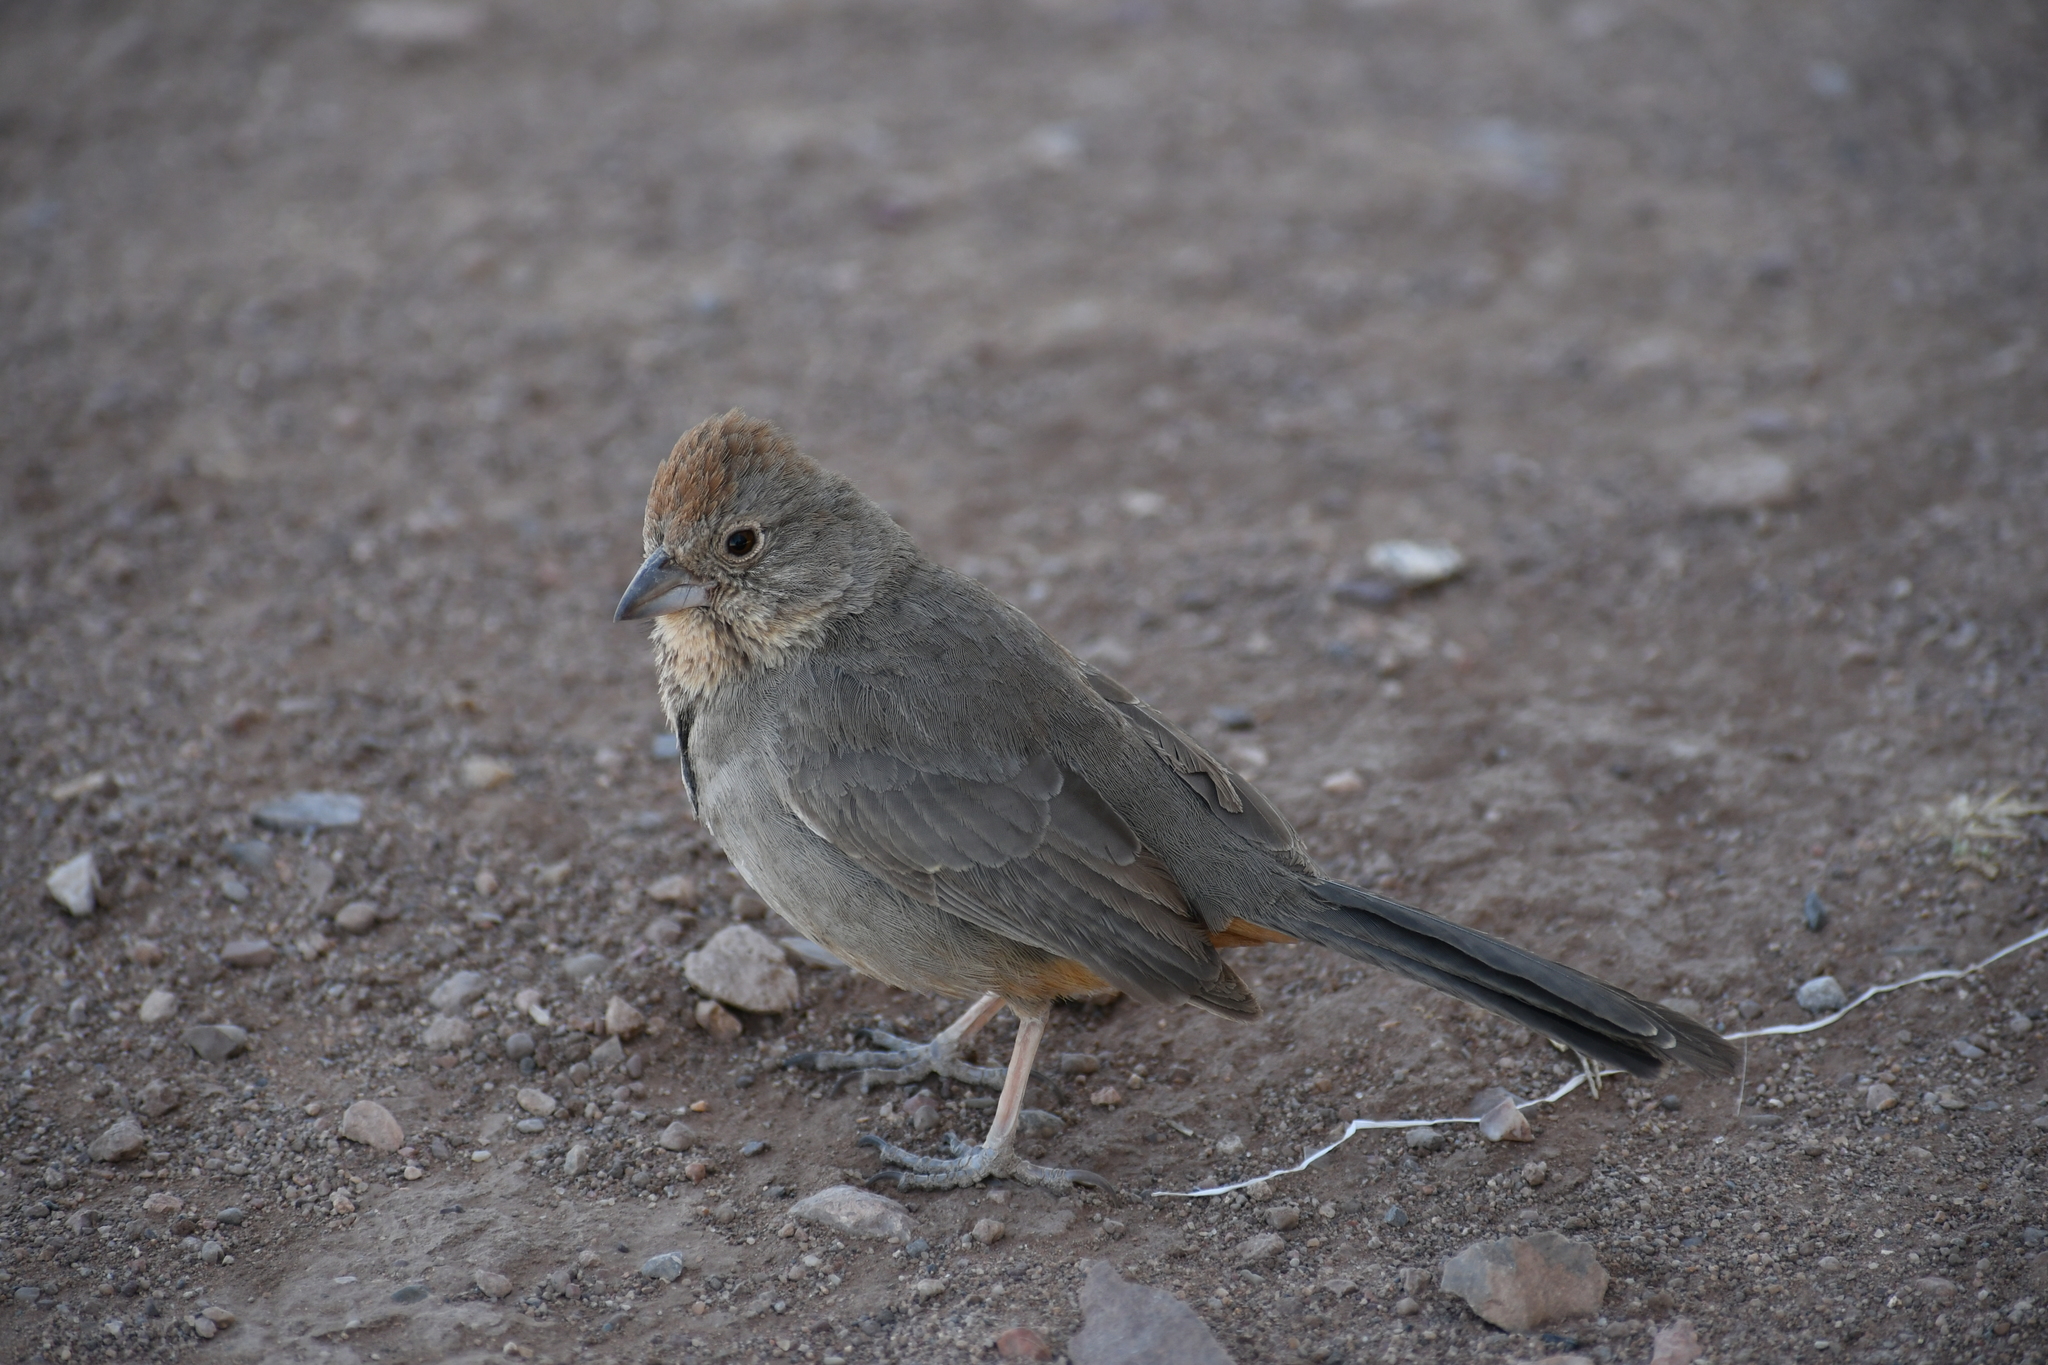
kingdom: Animalia
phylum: Chordata
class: Aves
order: Passeriformes
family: Passerellidae
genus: Melozone
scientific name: Melozone fusca
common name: Canyon towhee
